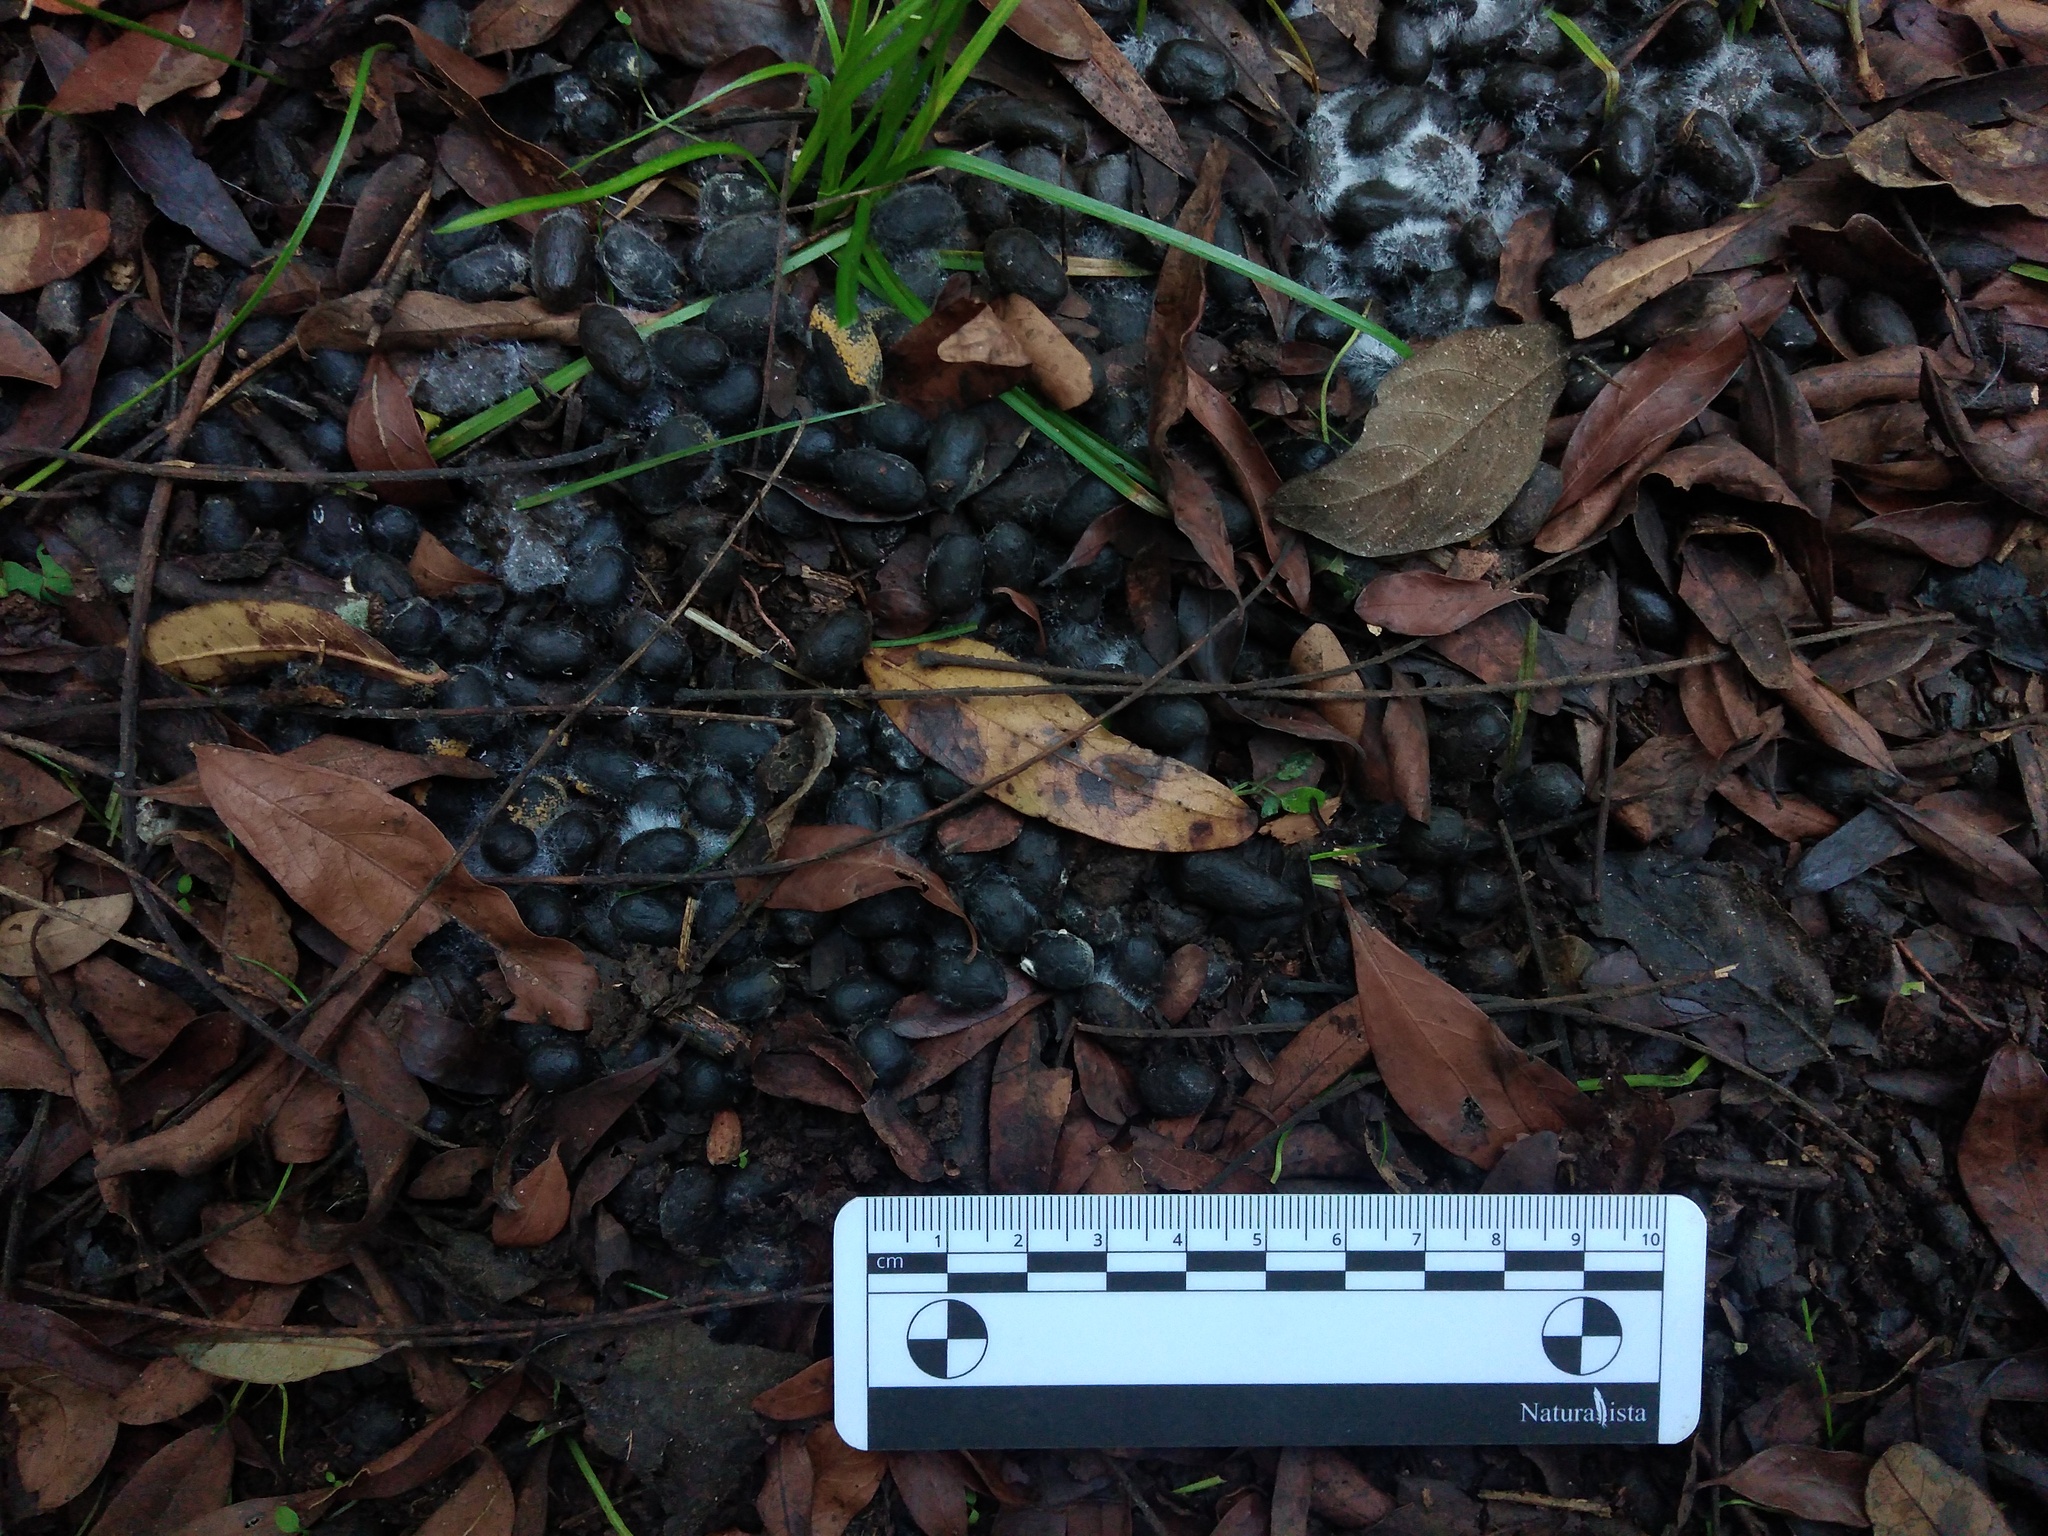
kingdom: Animalia
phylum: Chordata
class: Mammalia
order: Artiodactyla
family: Cervidae
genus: Mazama
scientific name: Mazama gouazoubira
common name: Gray brocket
